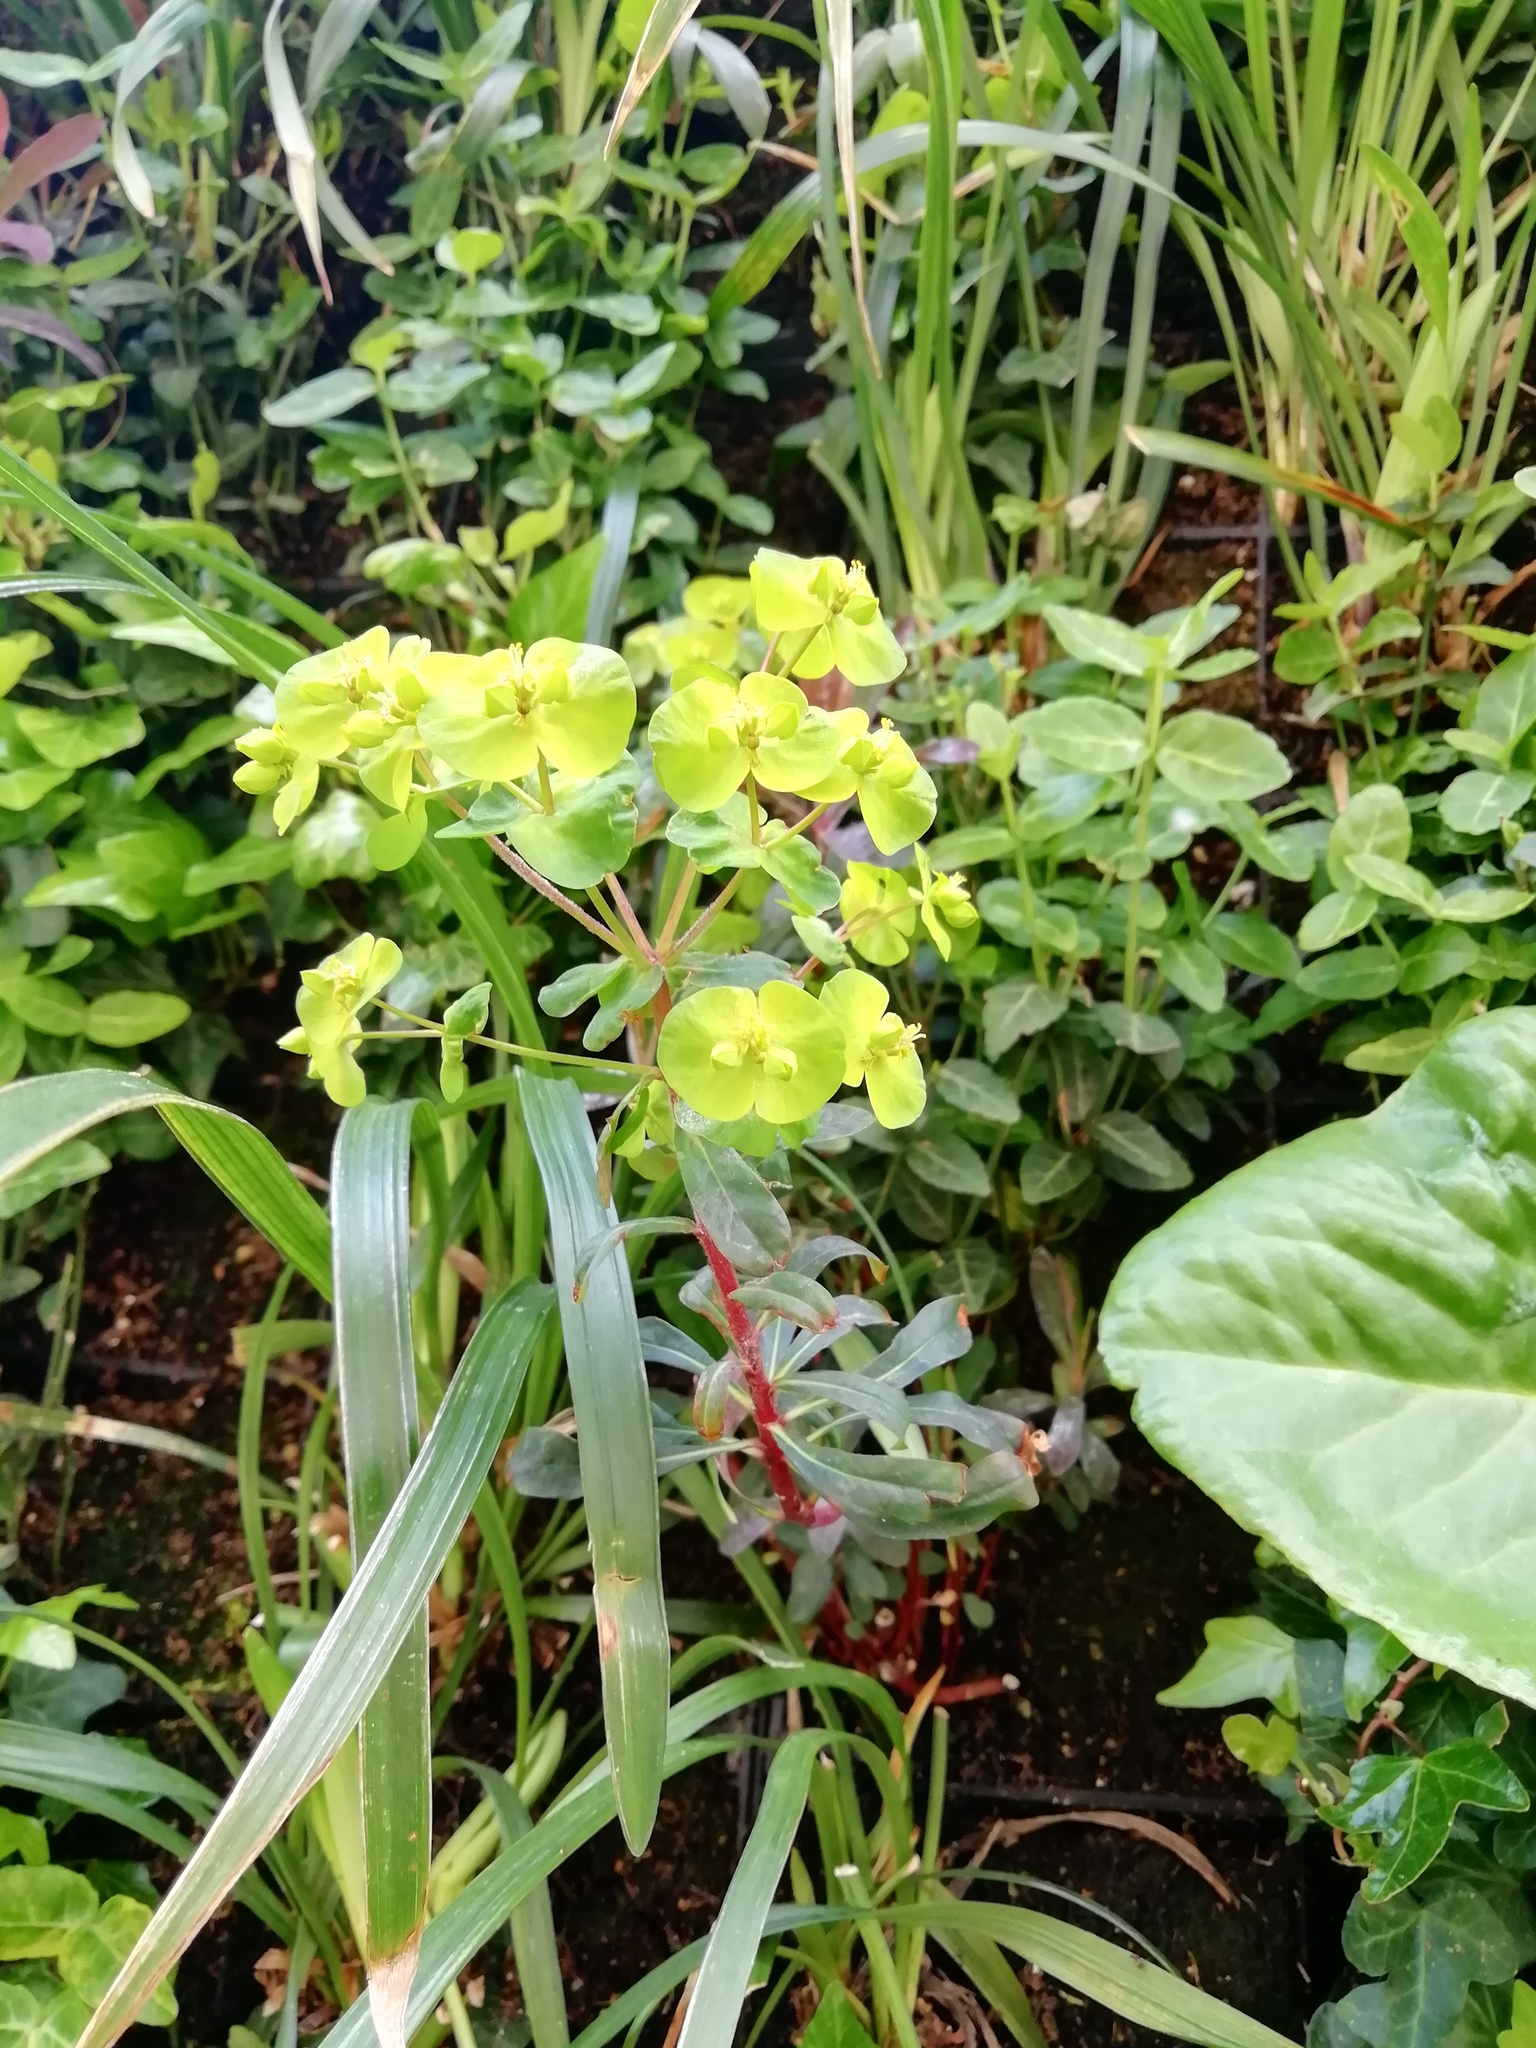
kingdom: Plantae
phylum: Tracheophyta
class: Magnoliopsida
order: Malpighiales
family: Euphorbiaceae
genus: Euphorbia
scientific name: Euphorbia amygdaloides
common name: Wood spurge
